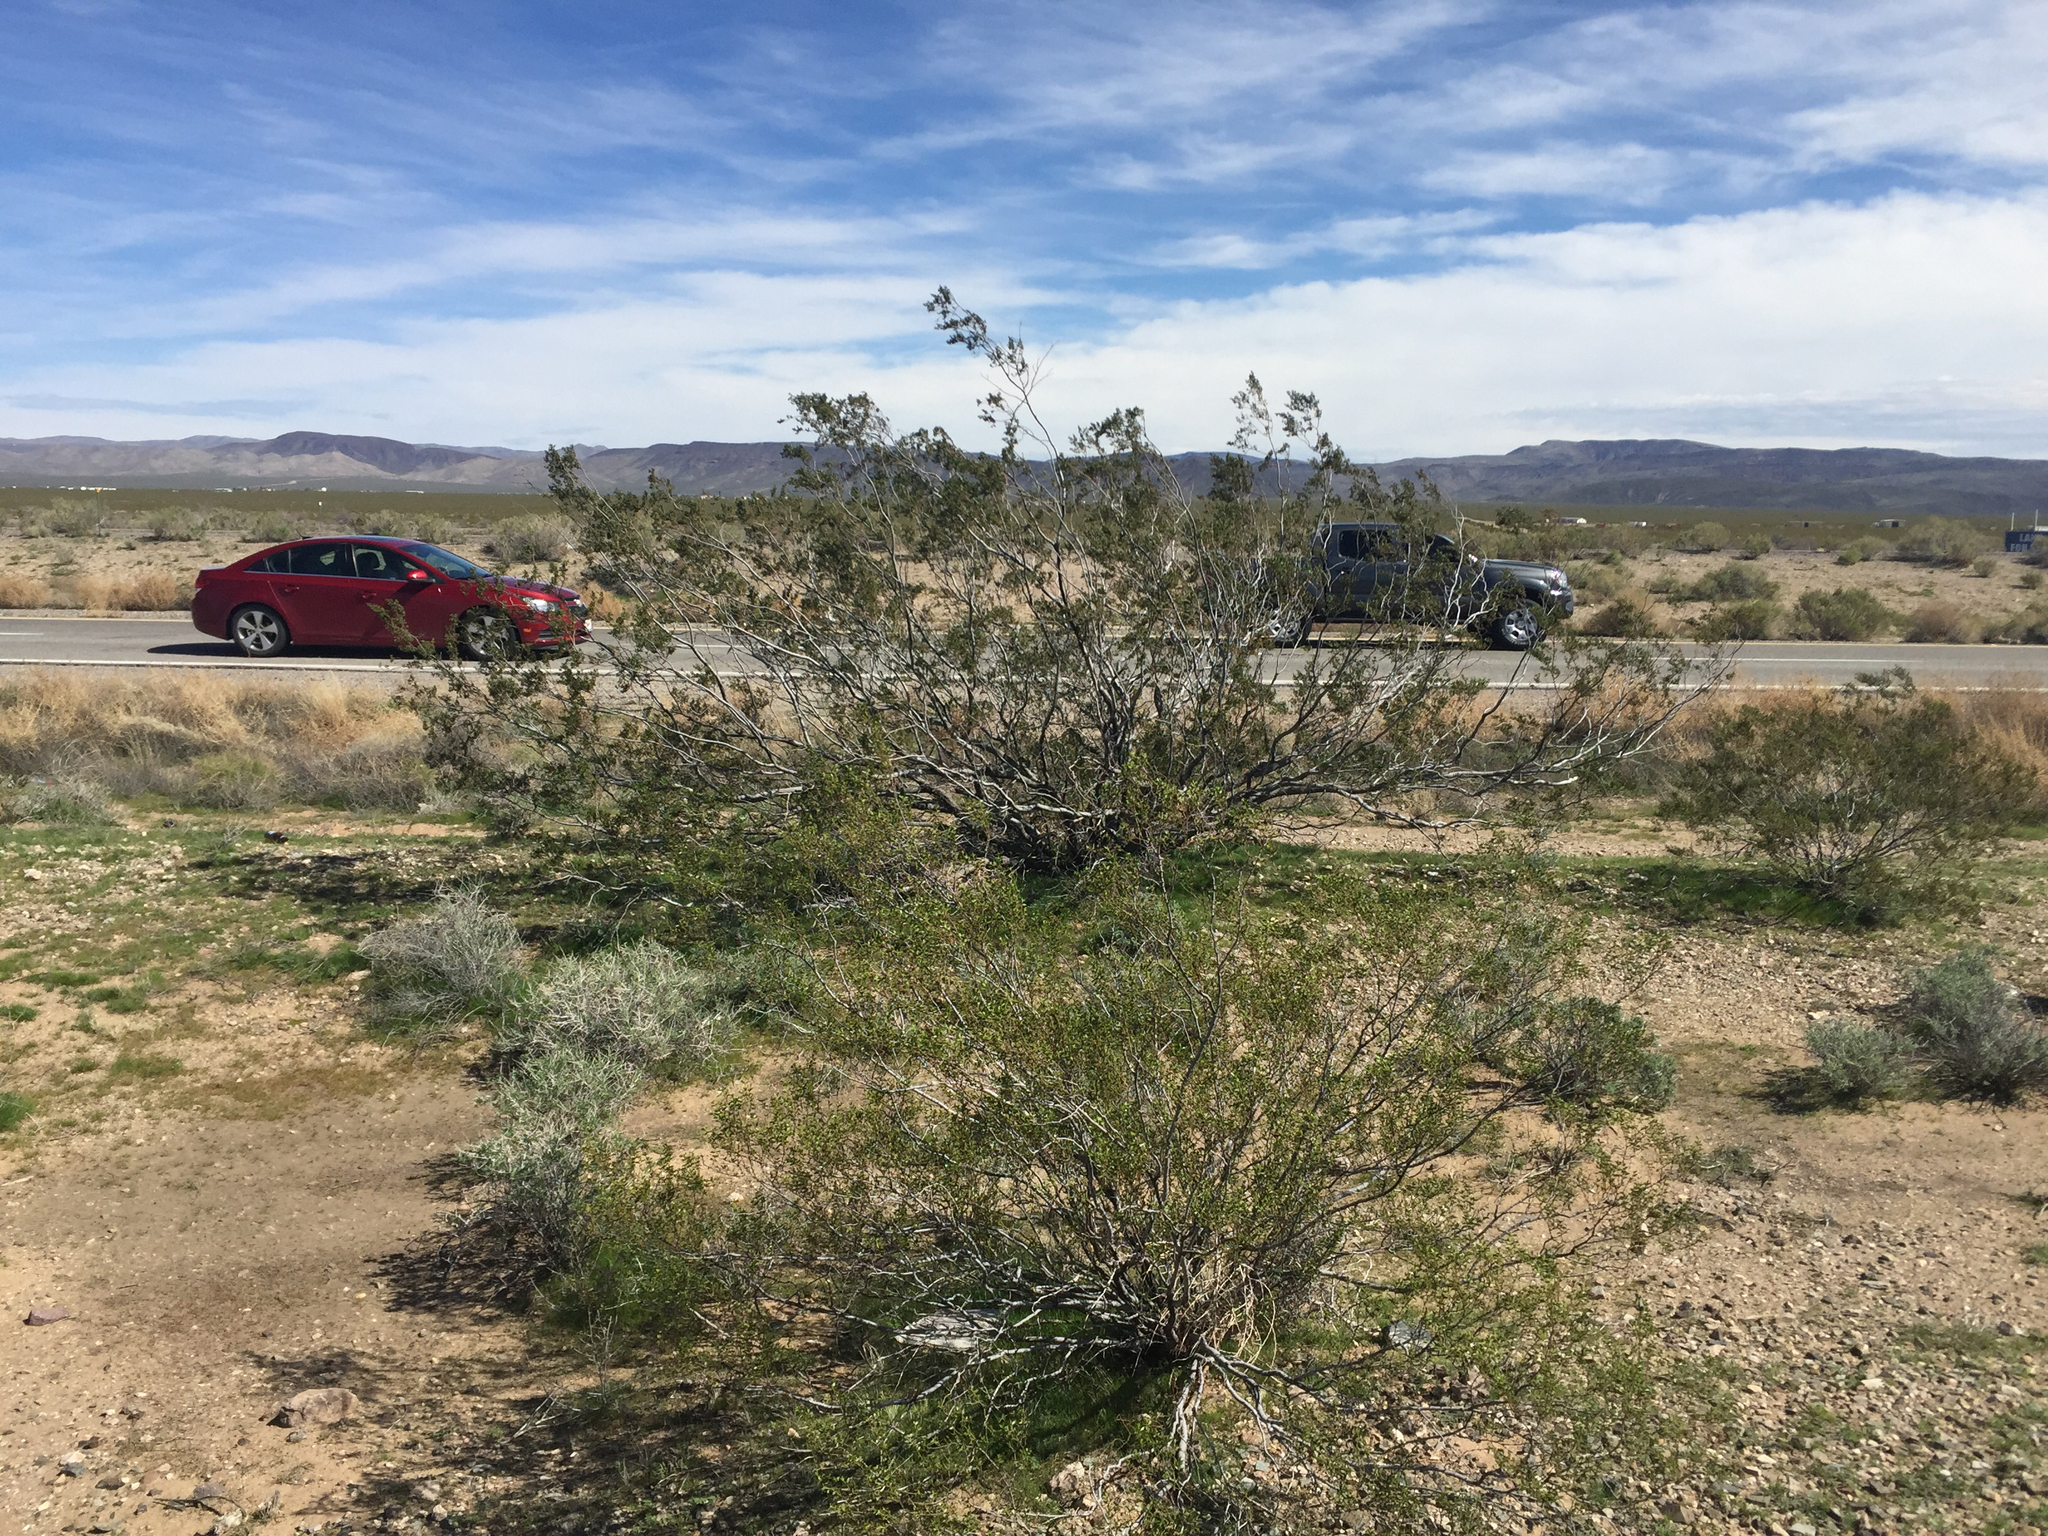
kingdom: Plantae
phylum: Tracheophyta
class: Magnoliopsida
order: Zygophyllales
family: Zygophyllaceae
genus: Larrea
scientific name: Larrea tridentata
